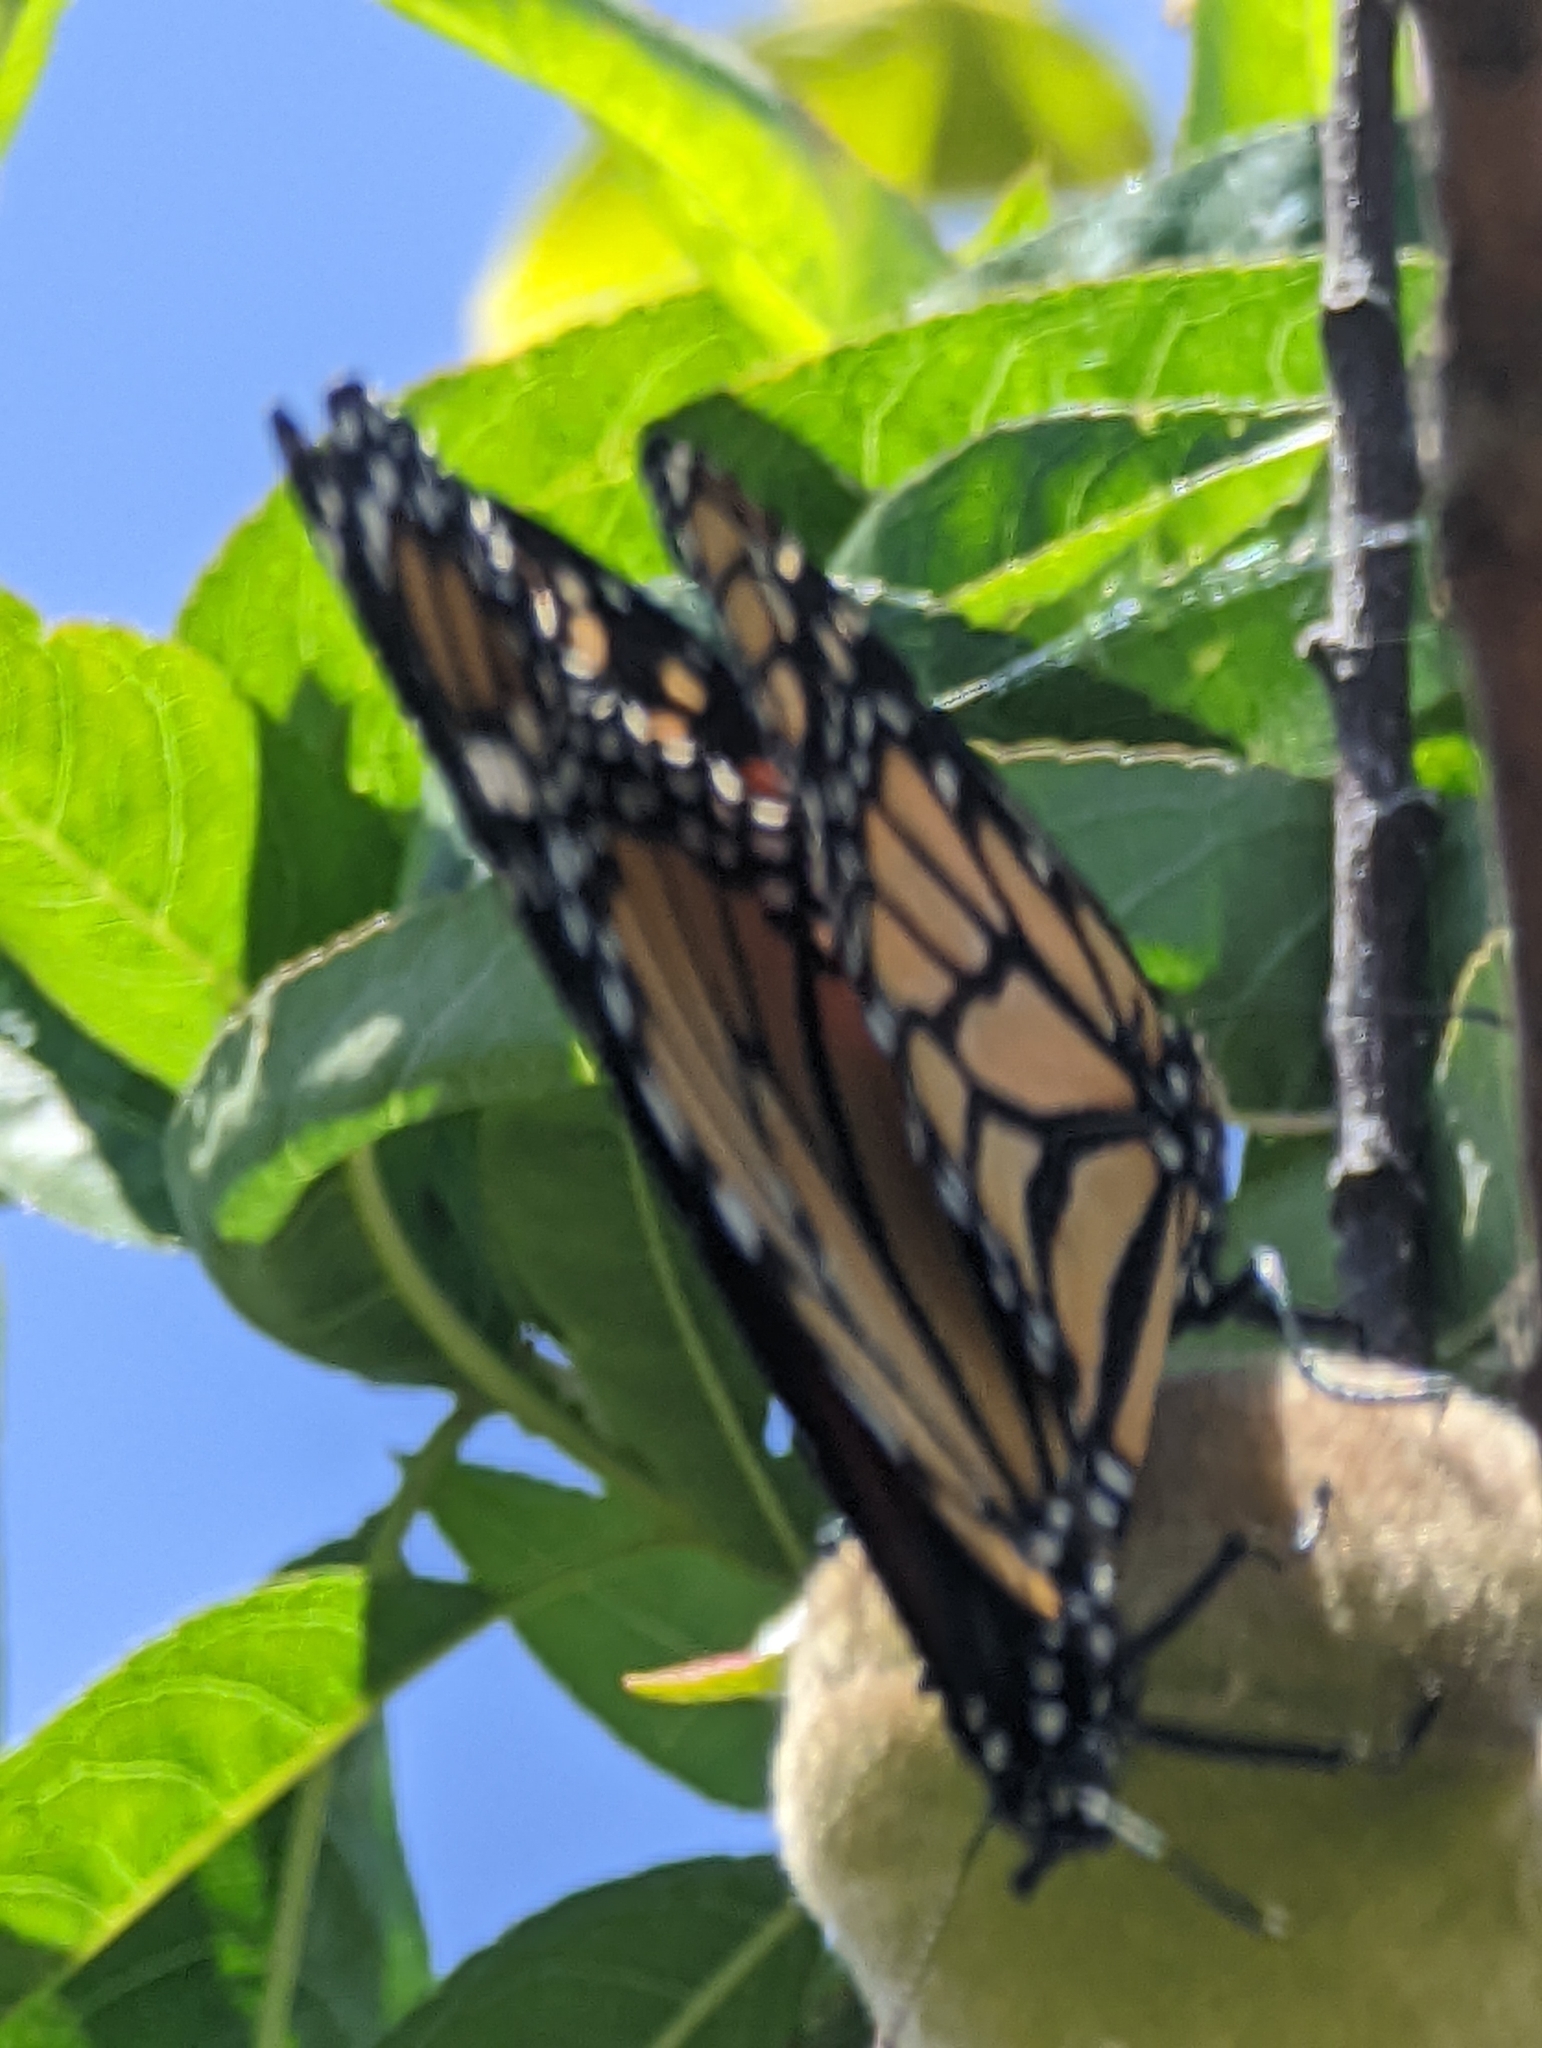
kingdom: Animalia
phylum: Arthropoda
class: Insecta
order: Lepidoptera
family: Nymphalidae
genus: Danaus
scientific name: Danaus plexippus
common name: Monarch
